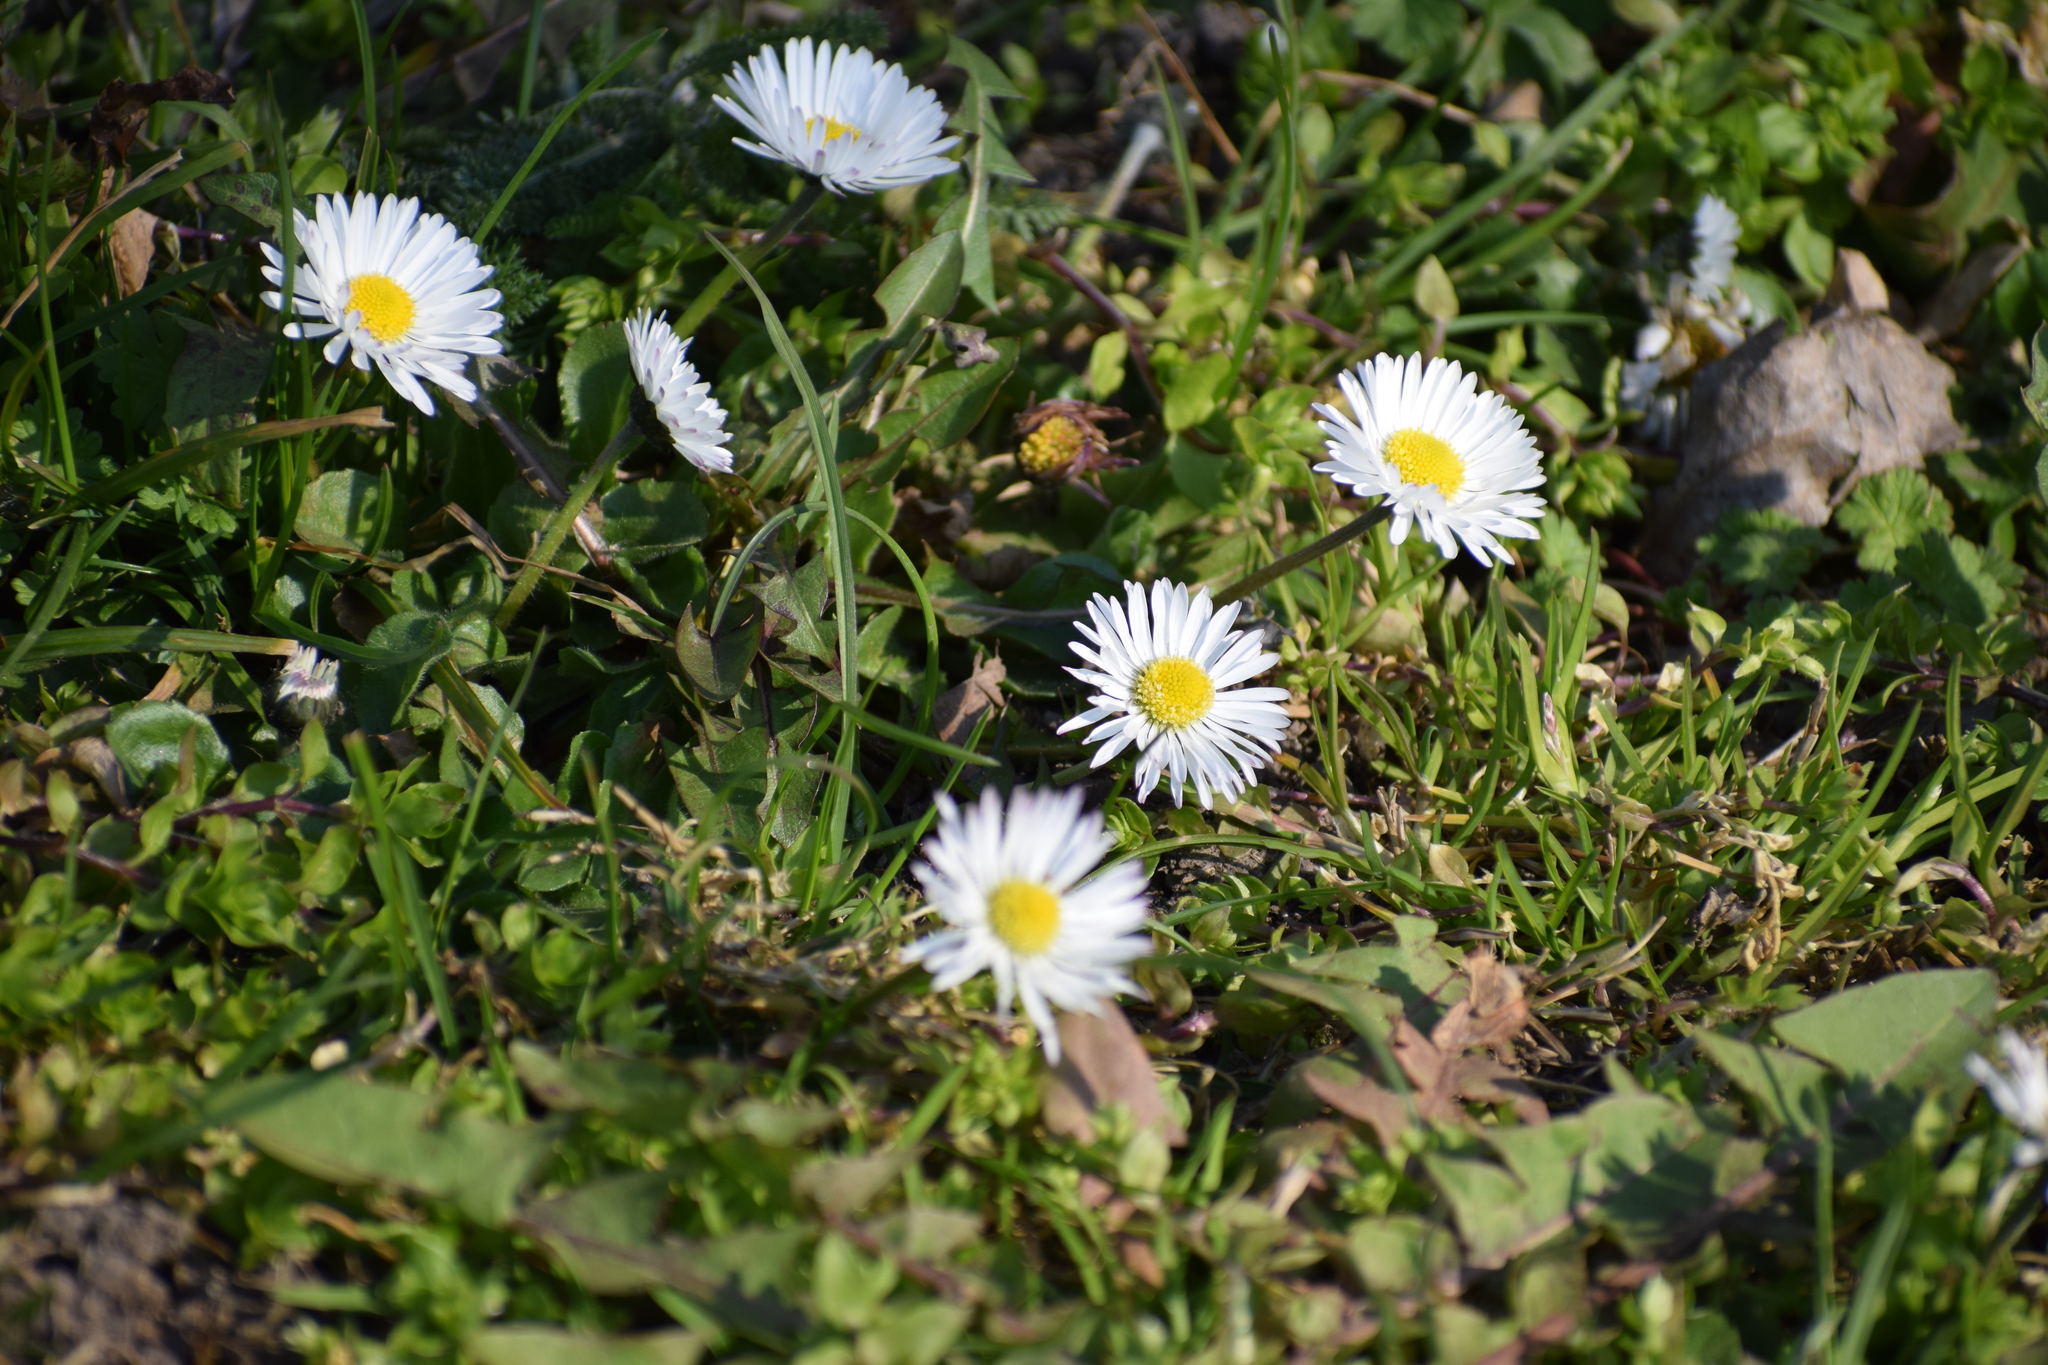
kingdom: Plantae
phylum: Tracheophyta
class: Magnoliopsida
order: Asterales
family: Asteraceae
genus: Bellis
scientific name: Bellis perennis
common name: Lawndaisy
